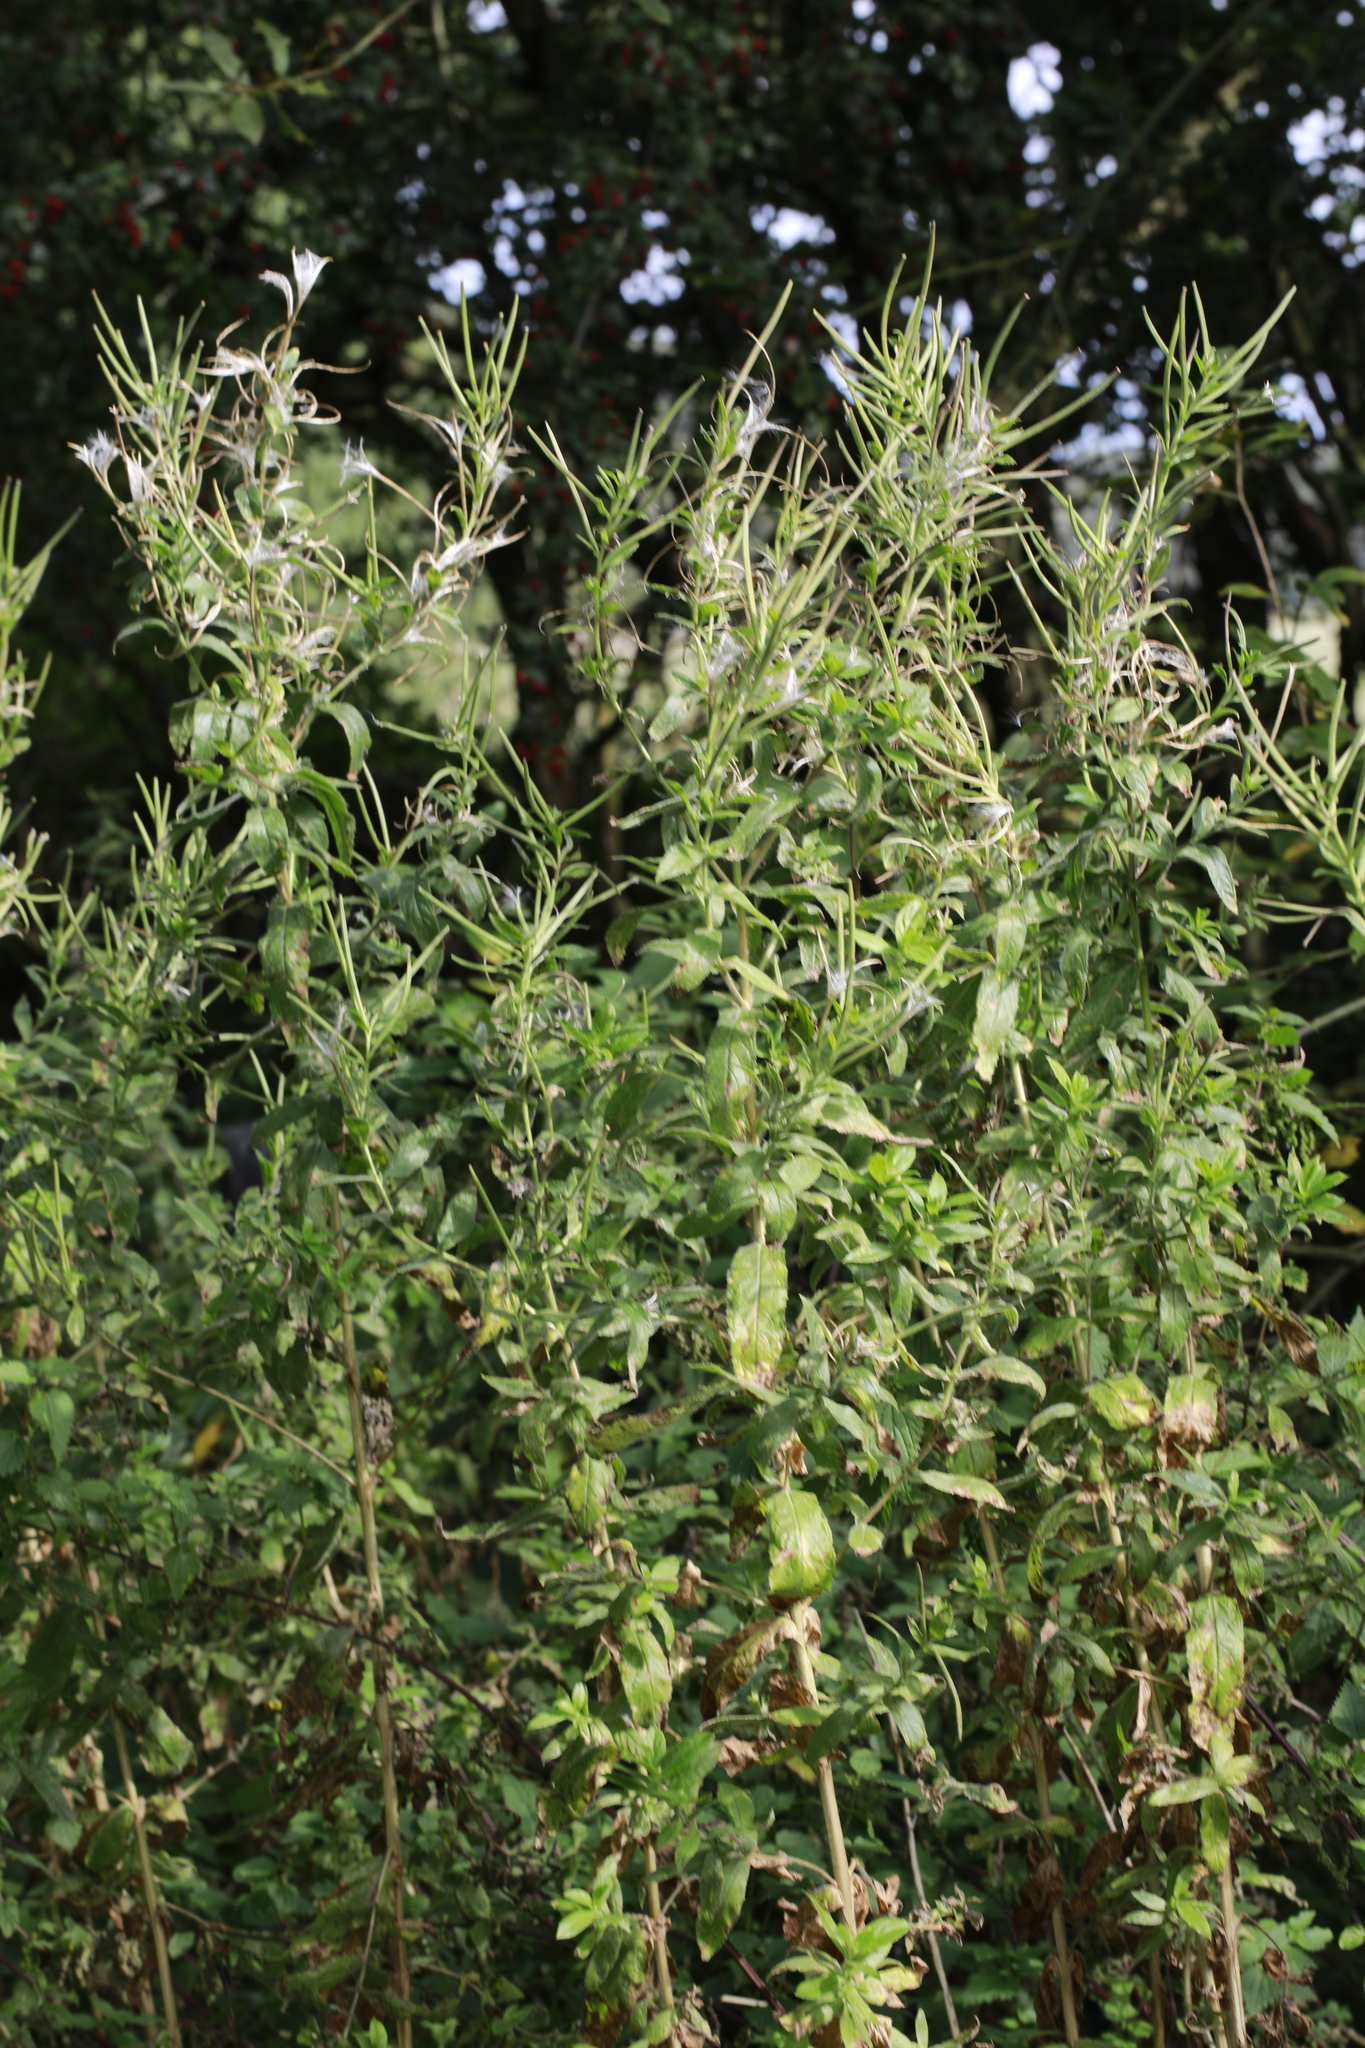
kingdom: Plantae
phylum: Tracheophyta
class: Magnoliopsida
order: Myrtales
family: Onagraceae
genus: Epilobium
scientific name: Epilobium hirsutum
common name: Great willowherb
